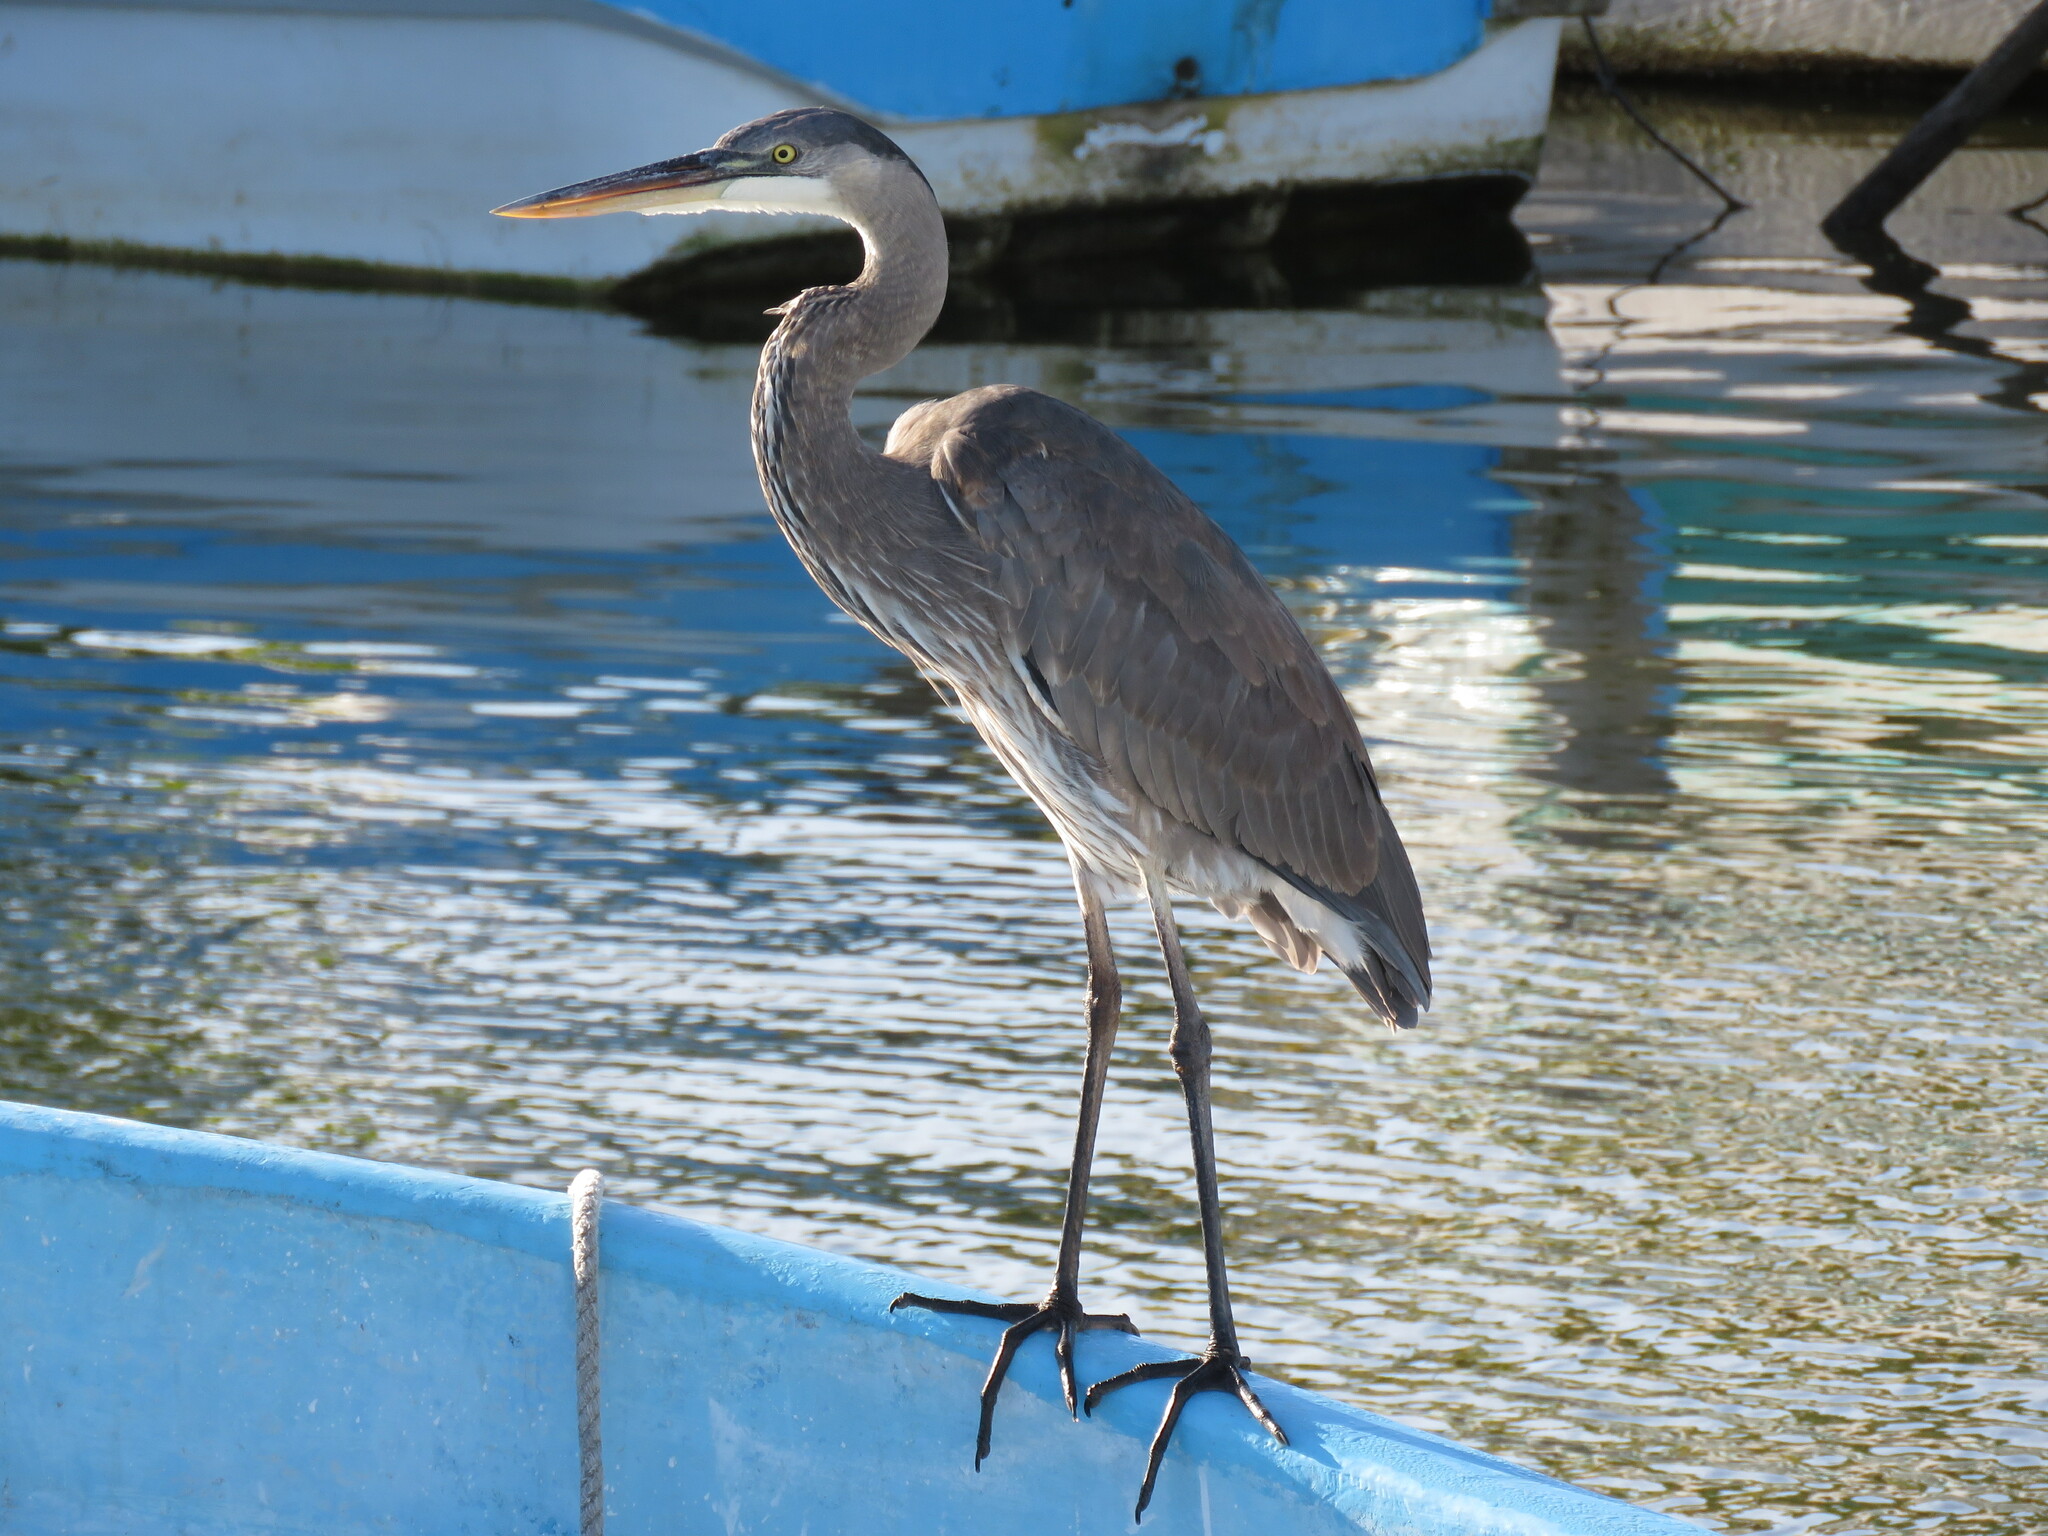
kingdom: Animalia
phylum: Chordata
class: Aves
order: Pelecaniformes
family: Ardeidae
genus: Ardea
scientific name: Ardea herodias
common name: Great blue heron
